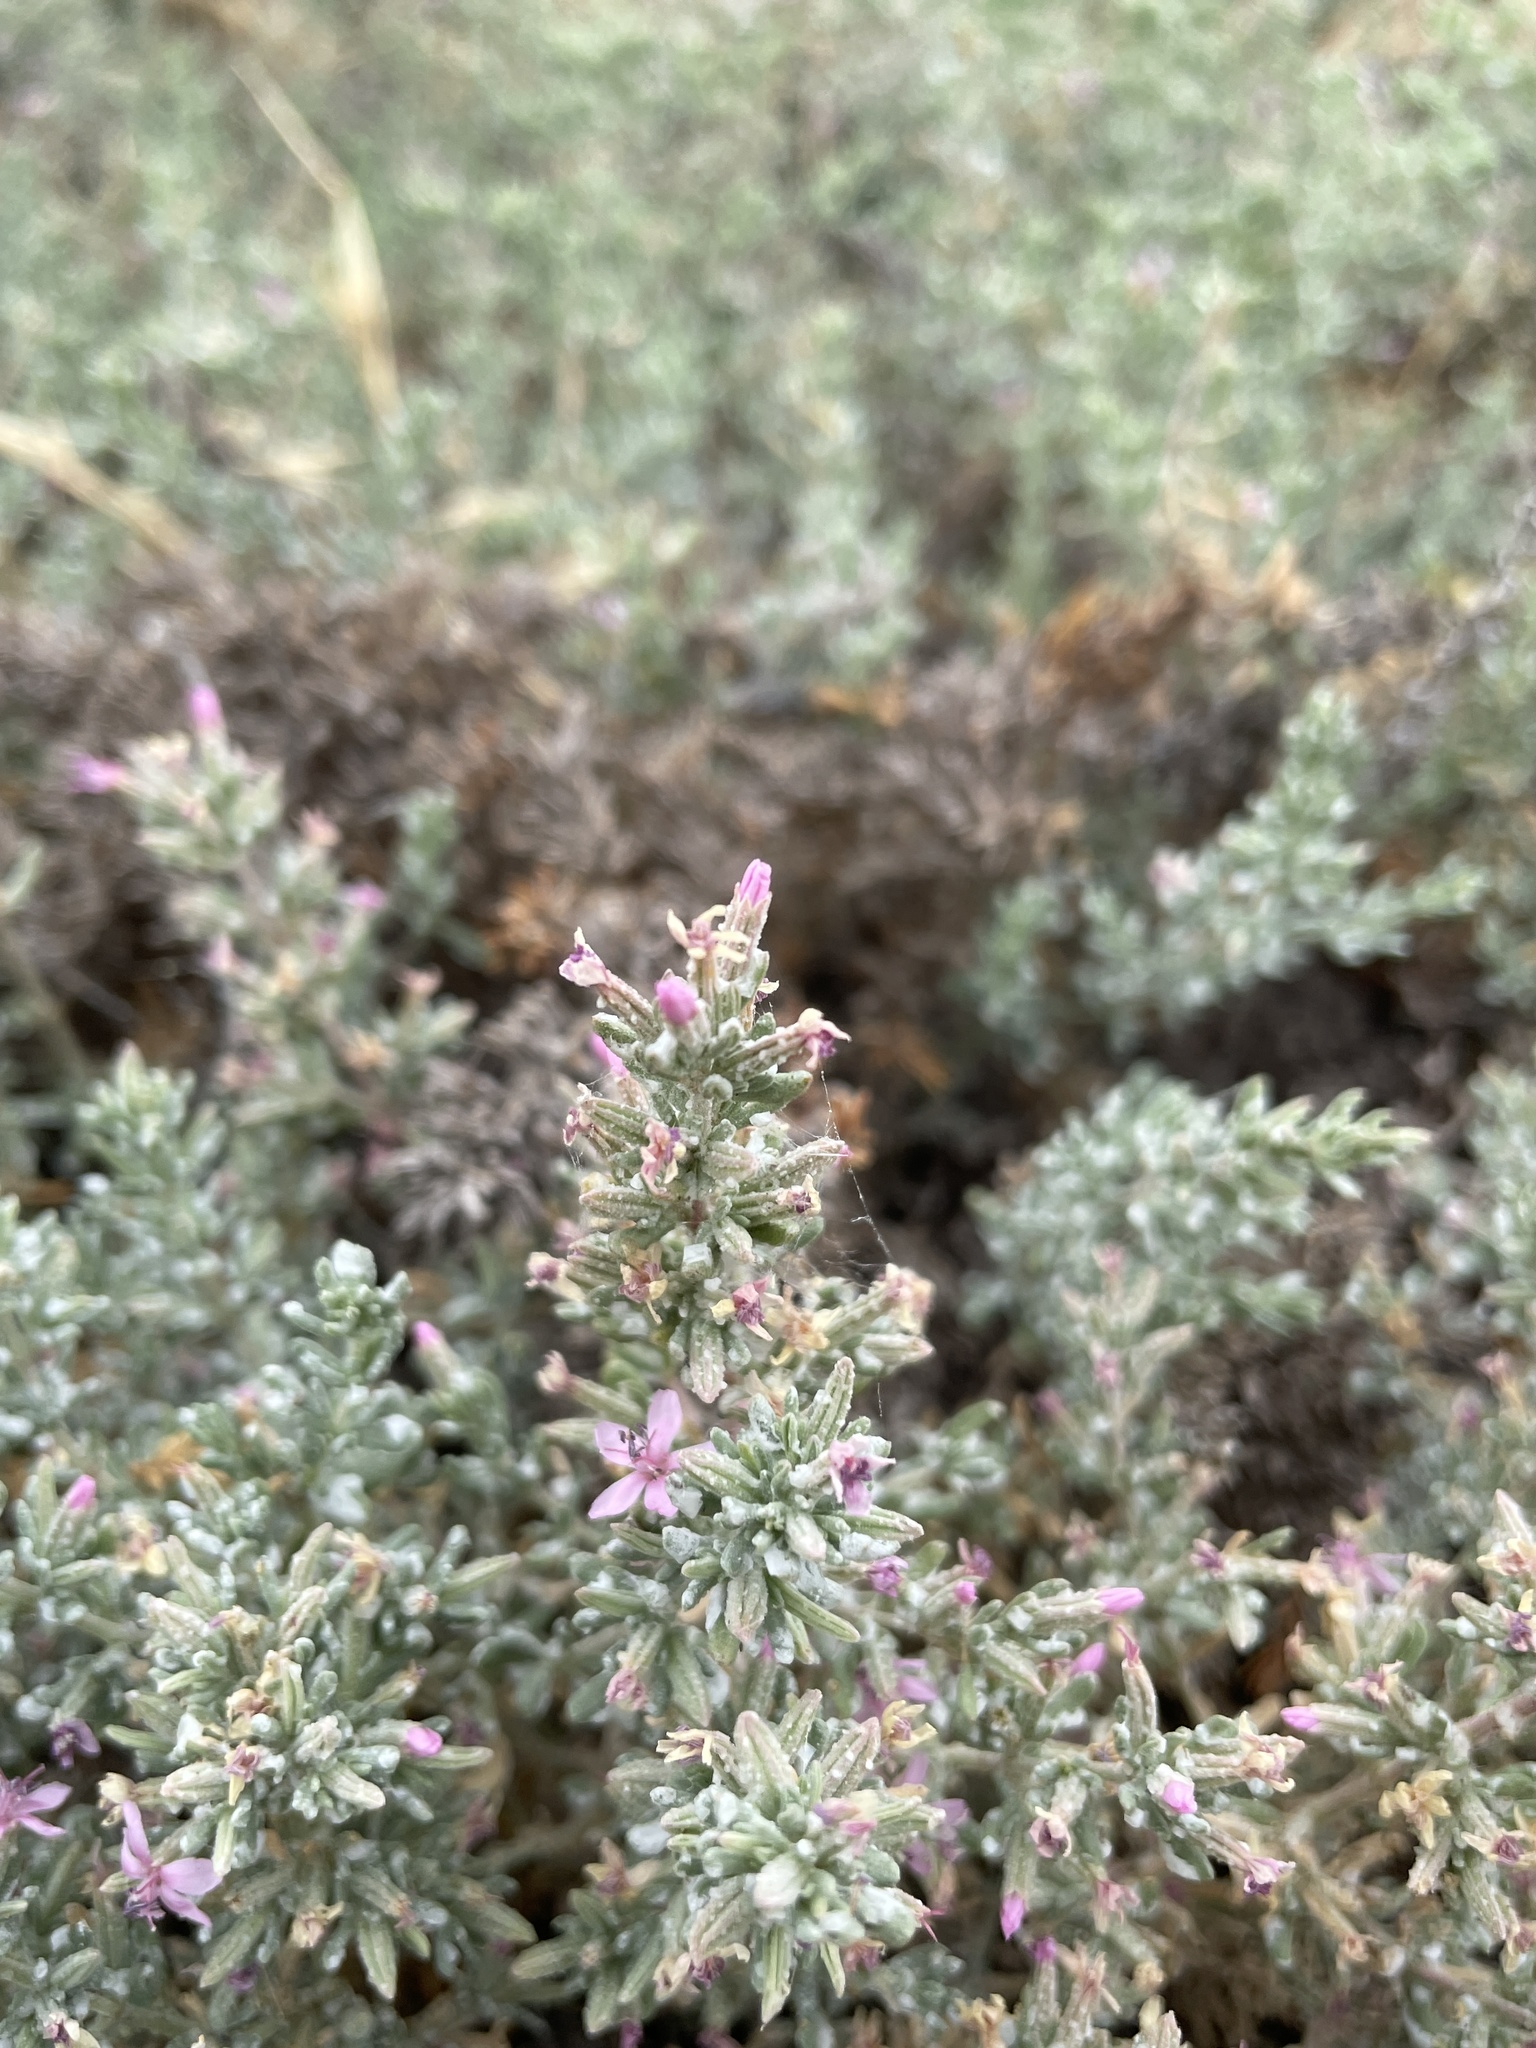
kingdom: Plantae
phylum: Tracheophyta
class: Magnoliopsida
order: Caryophyllales
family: Frankeniaceae
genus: Frankenia
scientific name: Frankenia salina
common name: Alkali seaheath
